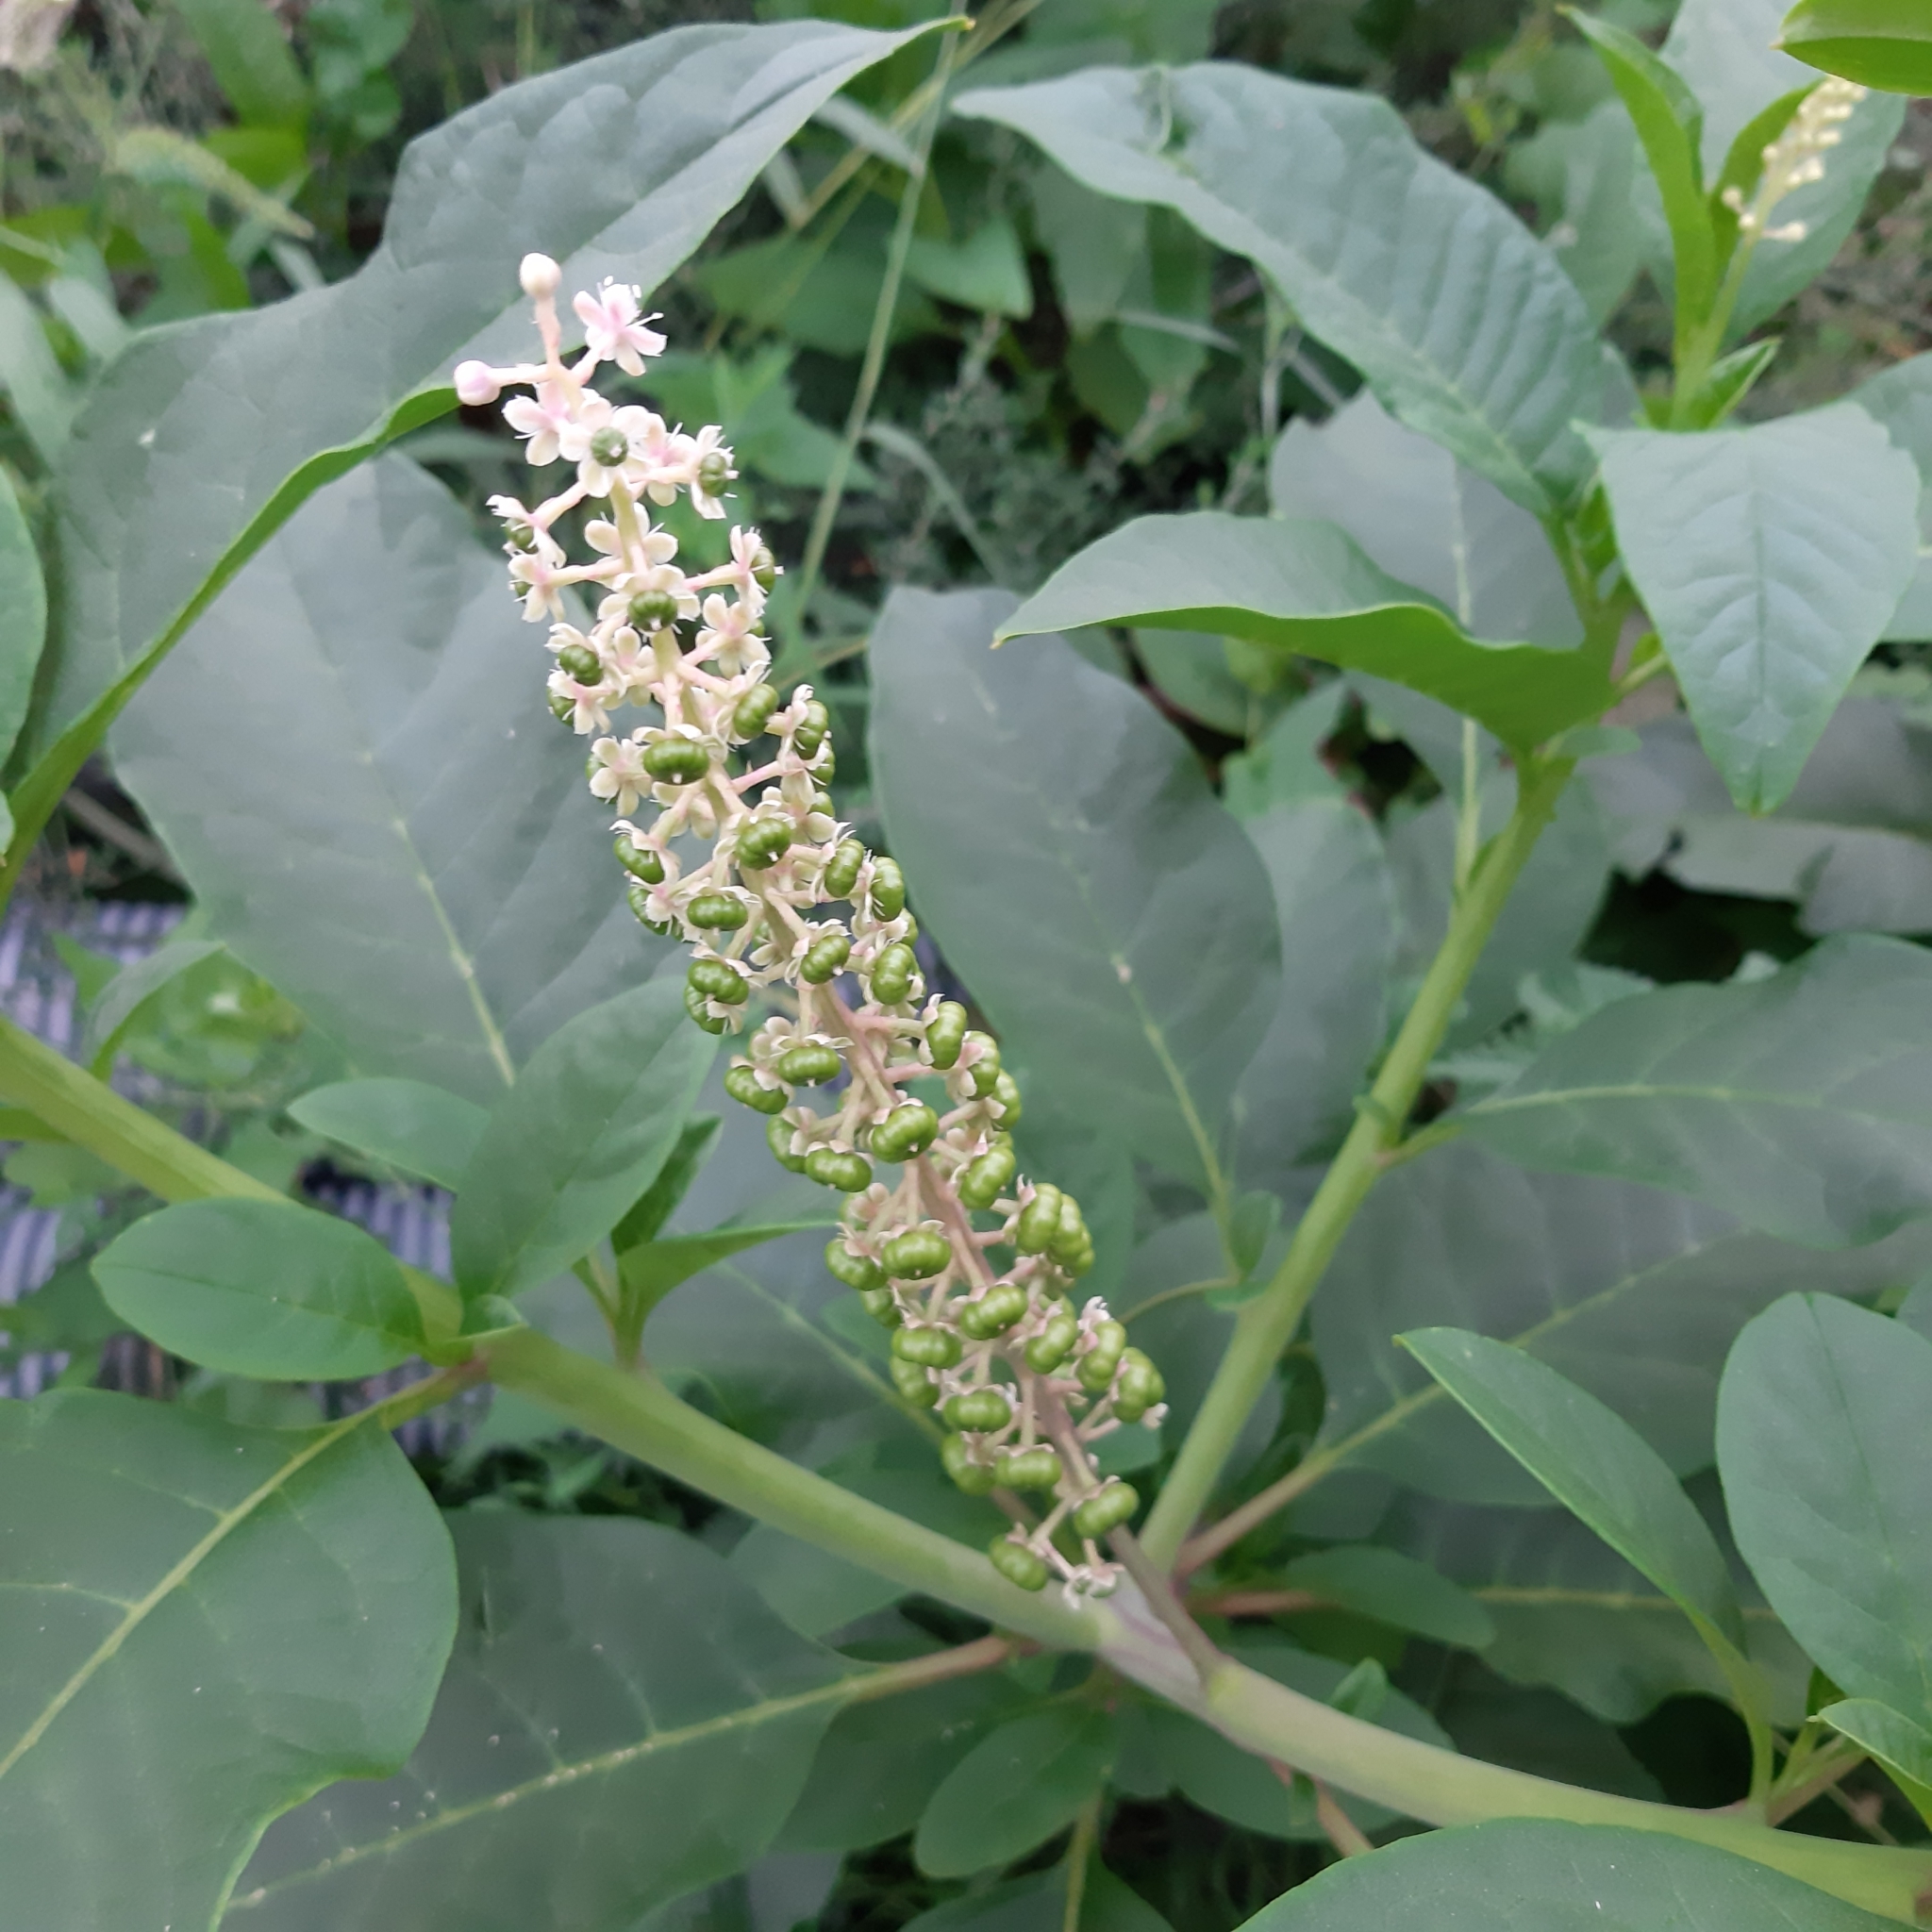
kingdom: Plantae
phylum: Tracheophyta
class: Magnoliopsida
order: Caryophyllales
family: Phytolaccaceae
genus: Phytolacca
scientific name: Phytolacca americana
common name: American pokeweed
